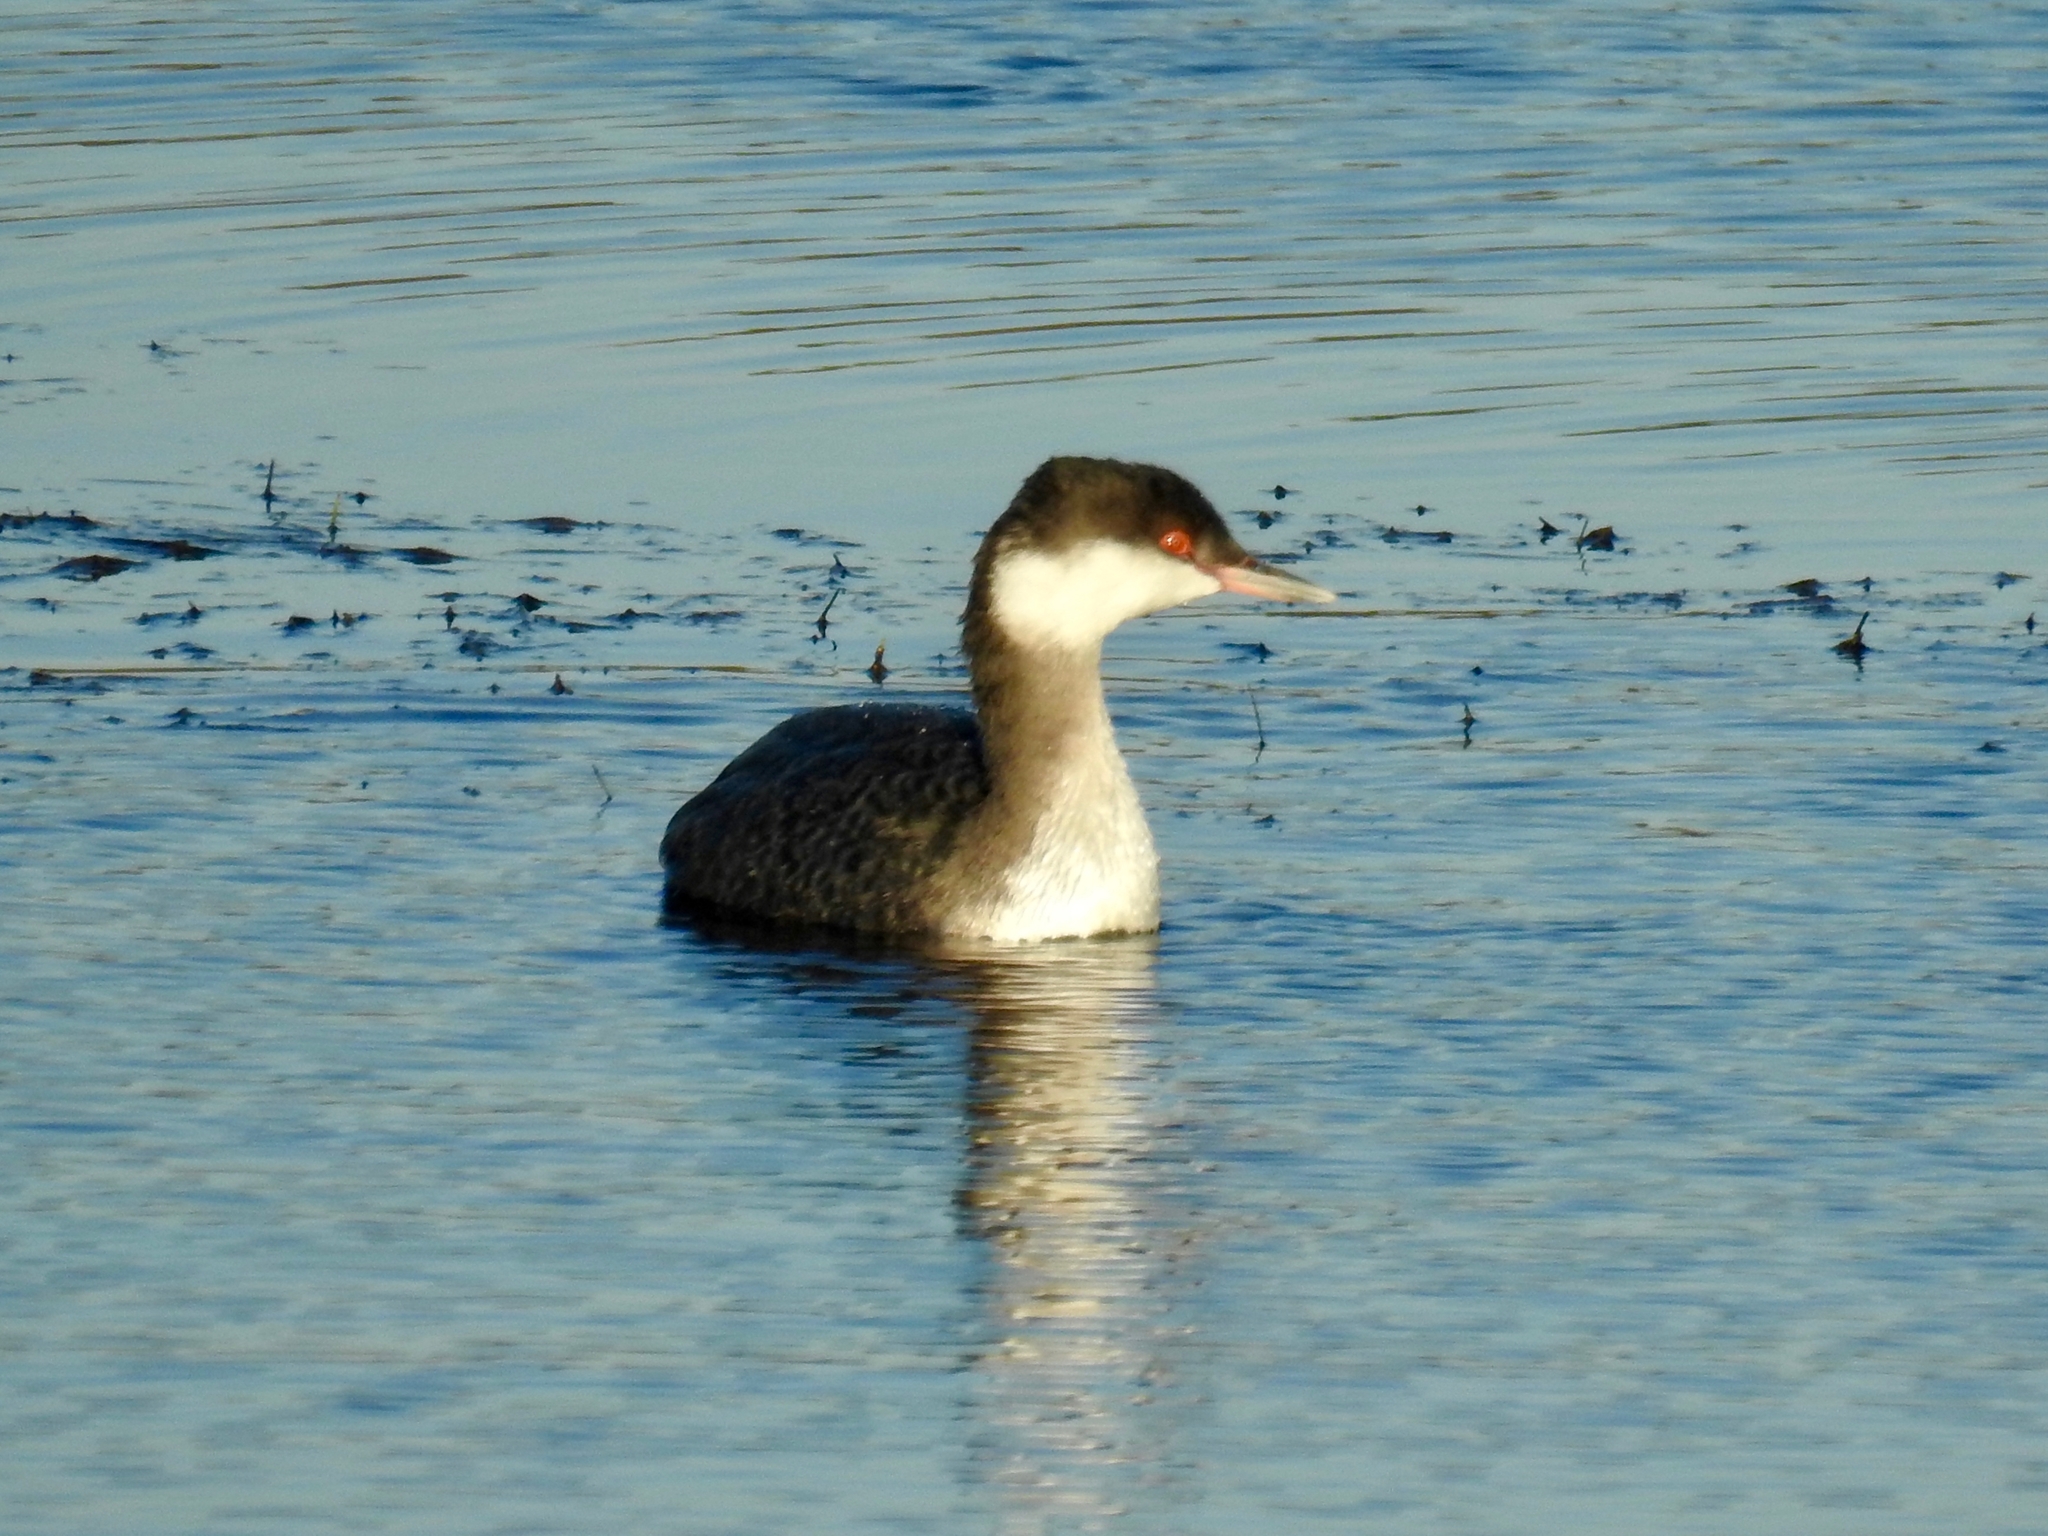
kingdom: Animalia
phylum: Chordata
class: Aves
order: Podicipediformes
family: Podicipedidae
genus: Podiceps
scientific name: Podiceps auritus
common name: Horned grebe
